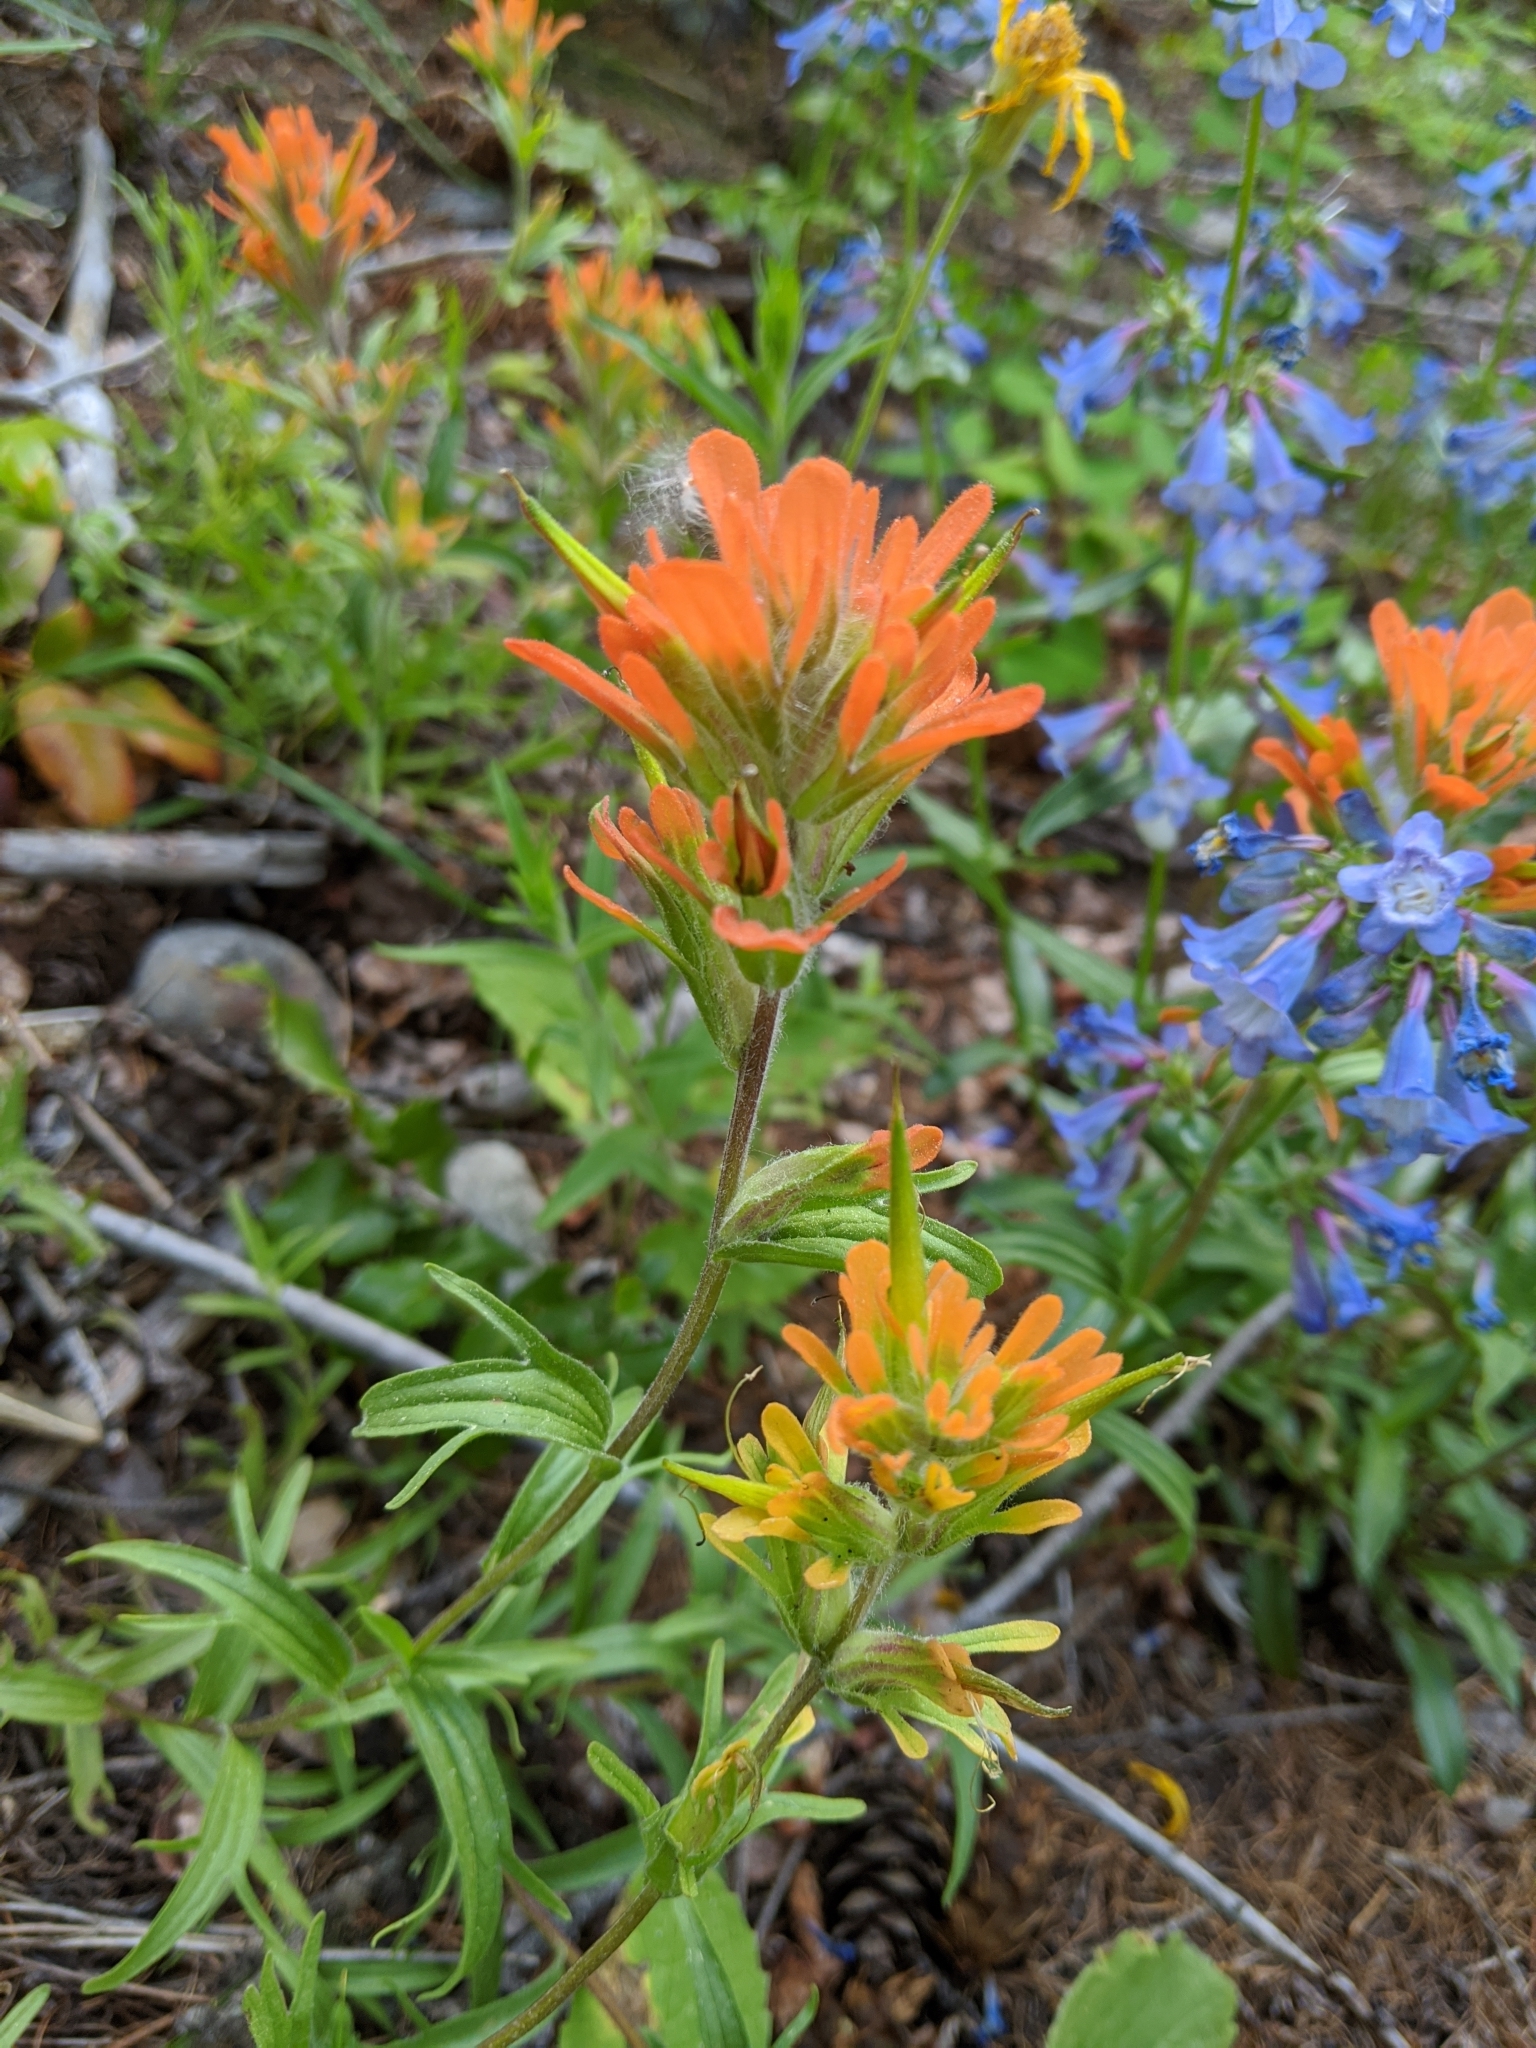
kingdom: Plantae
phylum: Tracheophyta
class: Magnoliopsida
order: Lamiales
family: Orobanchaceae
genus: Castilleja
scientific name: Castilleja hispida
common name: Bristly paintbrush
